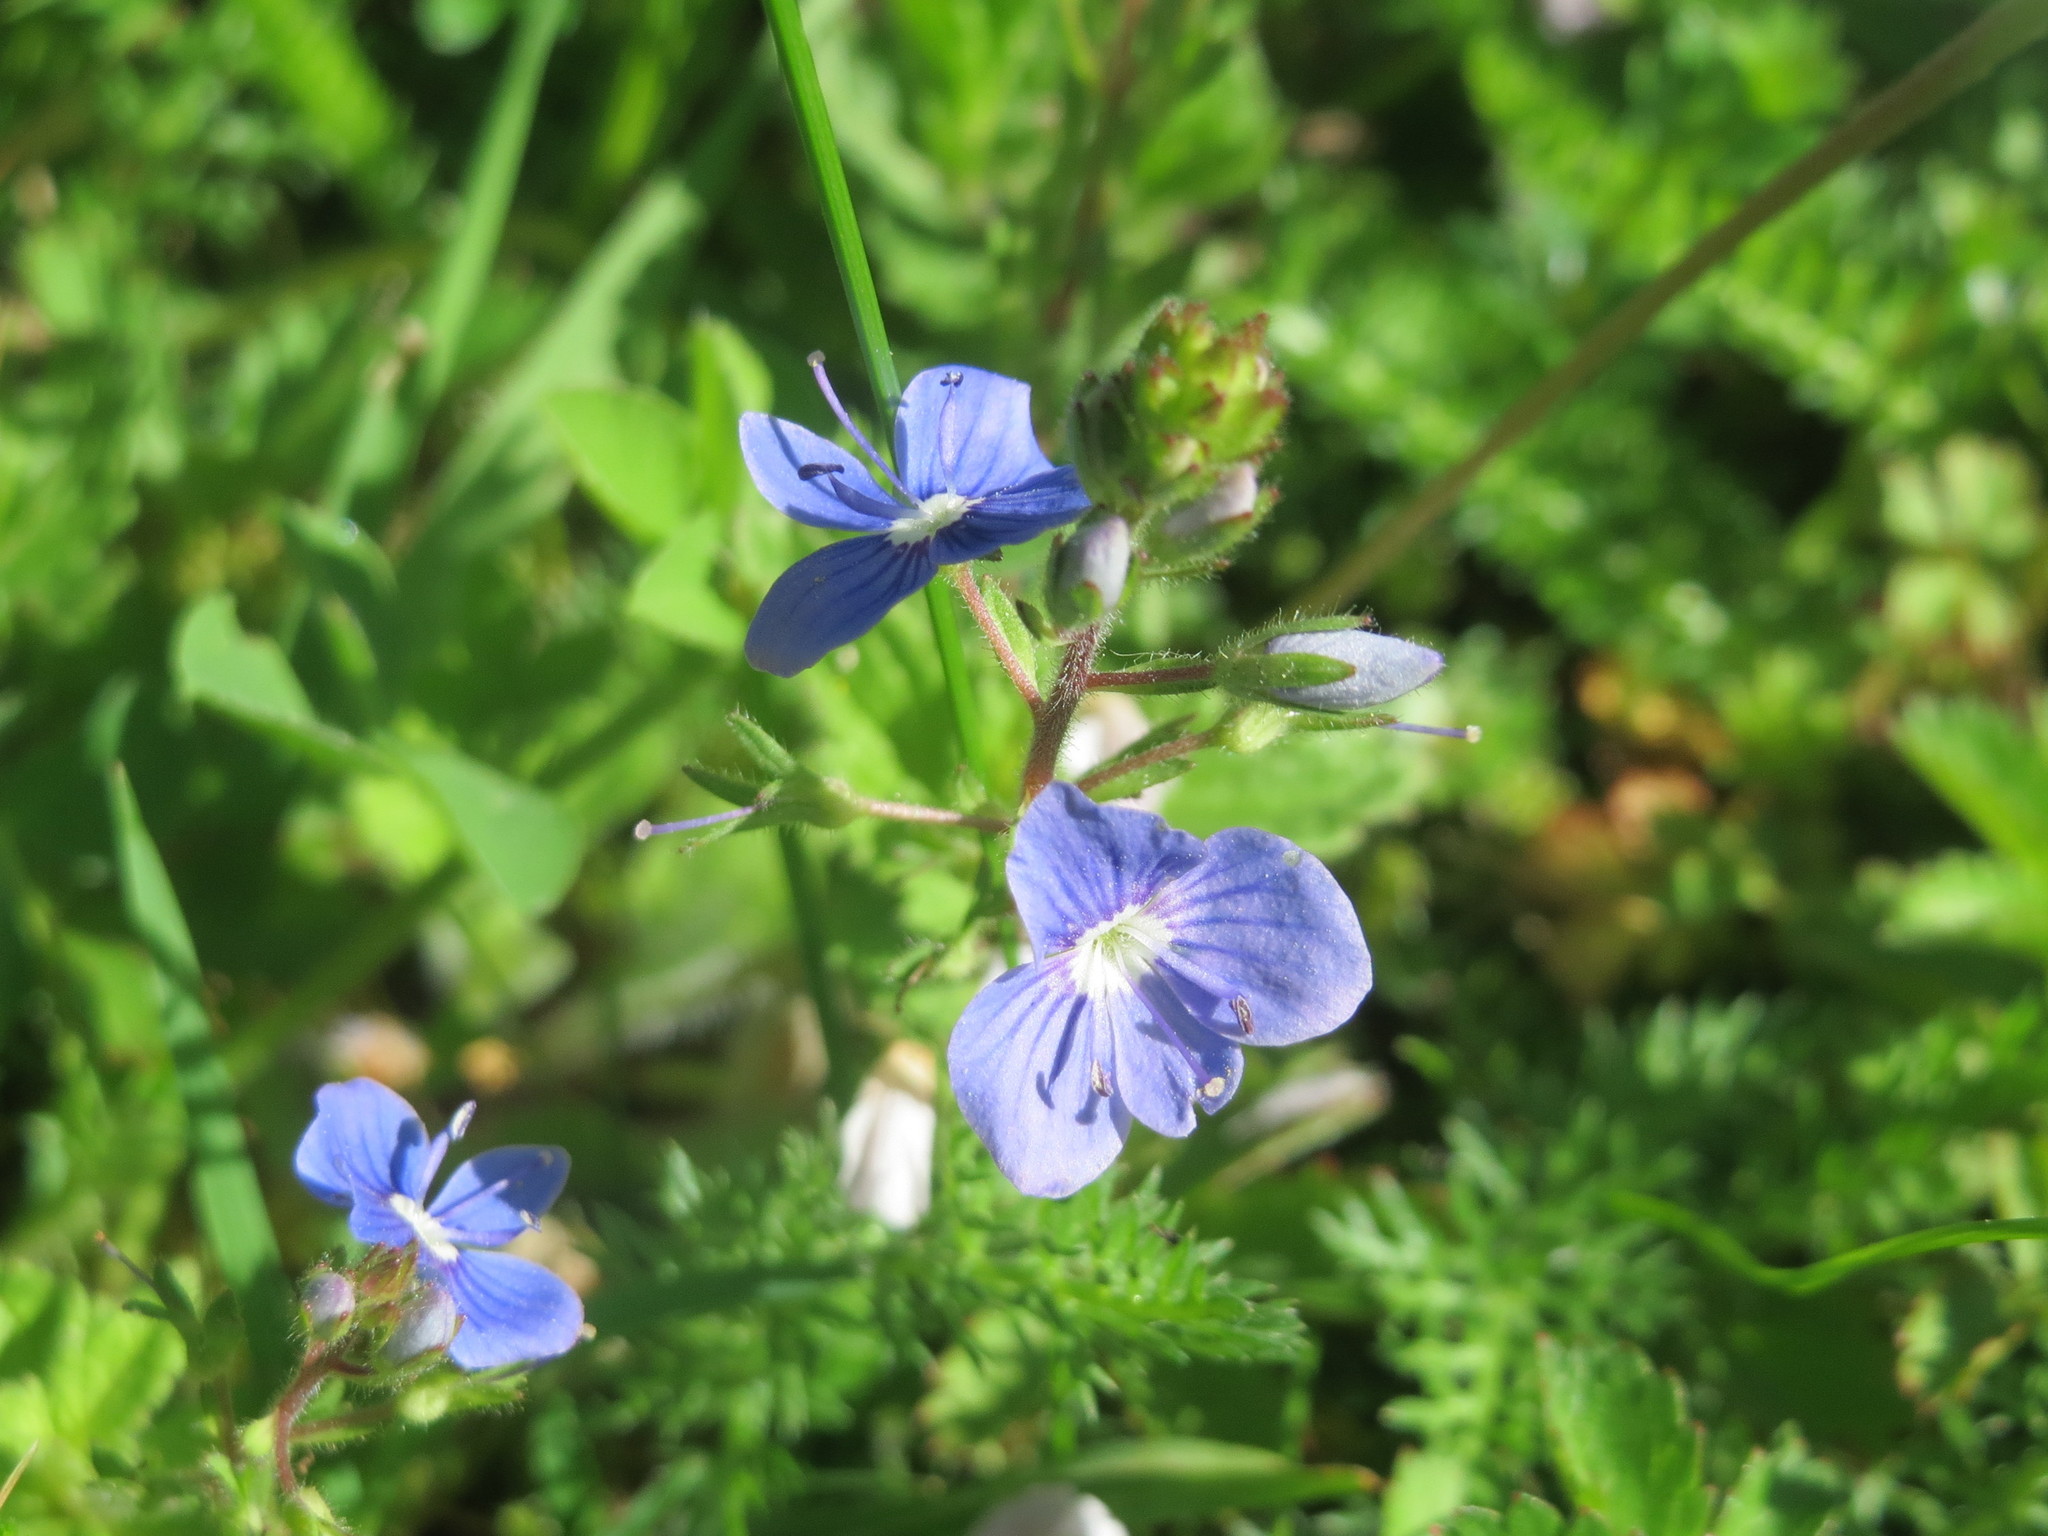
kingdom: Plantae
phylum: Tracheophyta
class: Magnoliopsida
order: Lamiales
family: Plantaginaceae
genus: Veronica
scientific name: Veronica chamaedrys
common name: Germander speedwell
